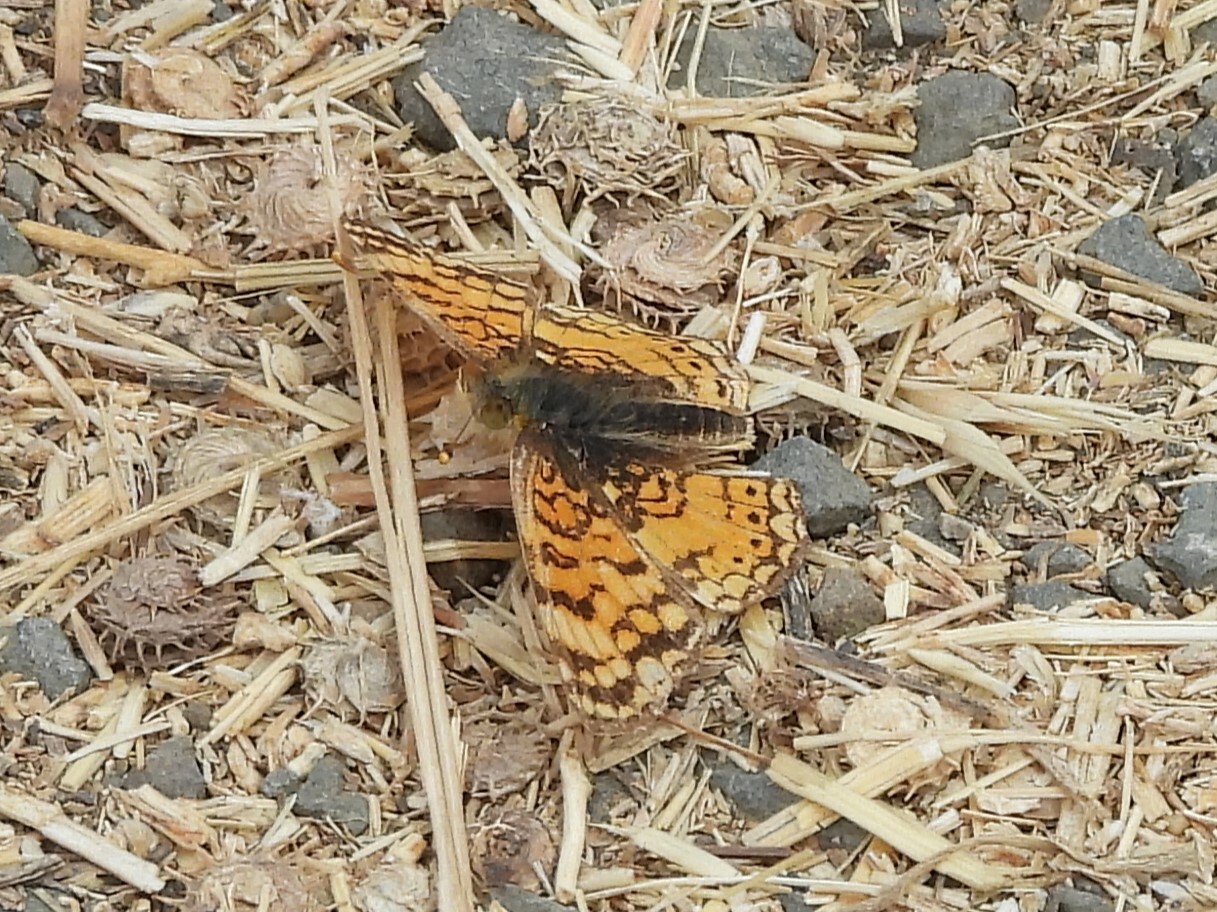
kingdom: Animalia
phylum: Arthropoda
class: Insecta
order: Lepidoptera
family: Nymphalidae
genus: Eresia
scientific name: Eresia aveyrona
